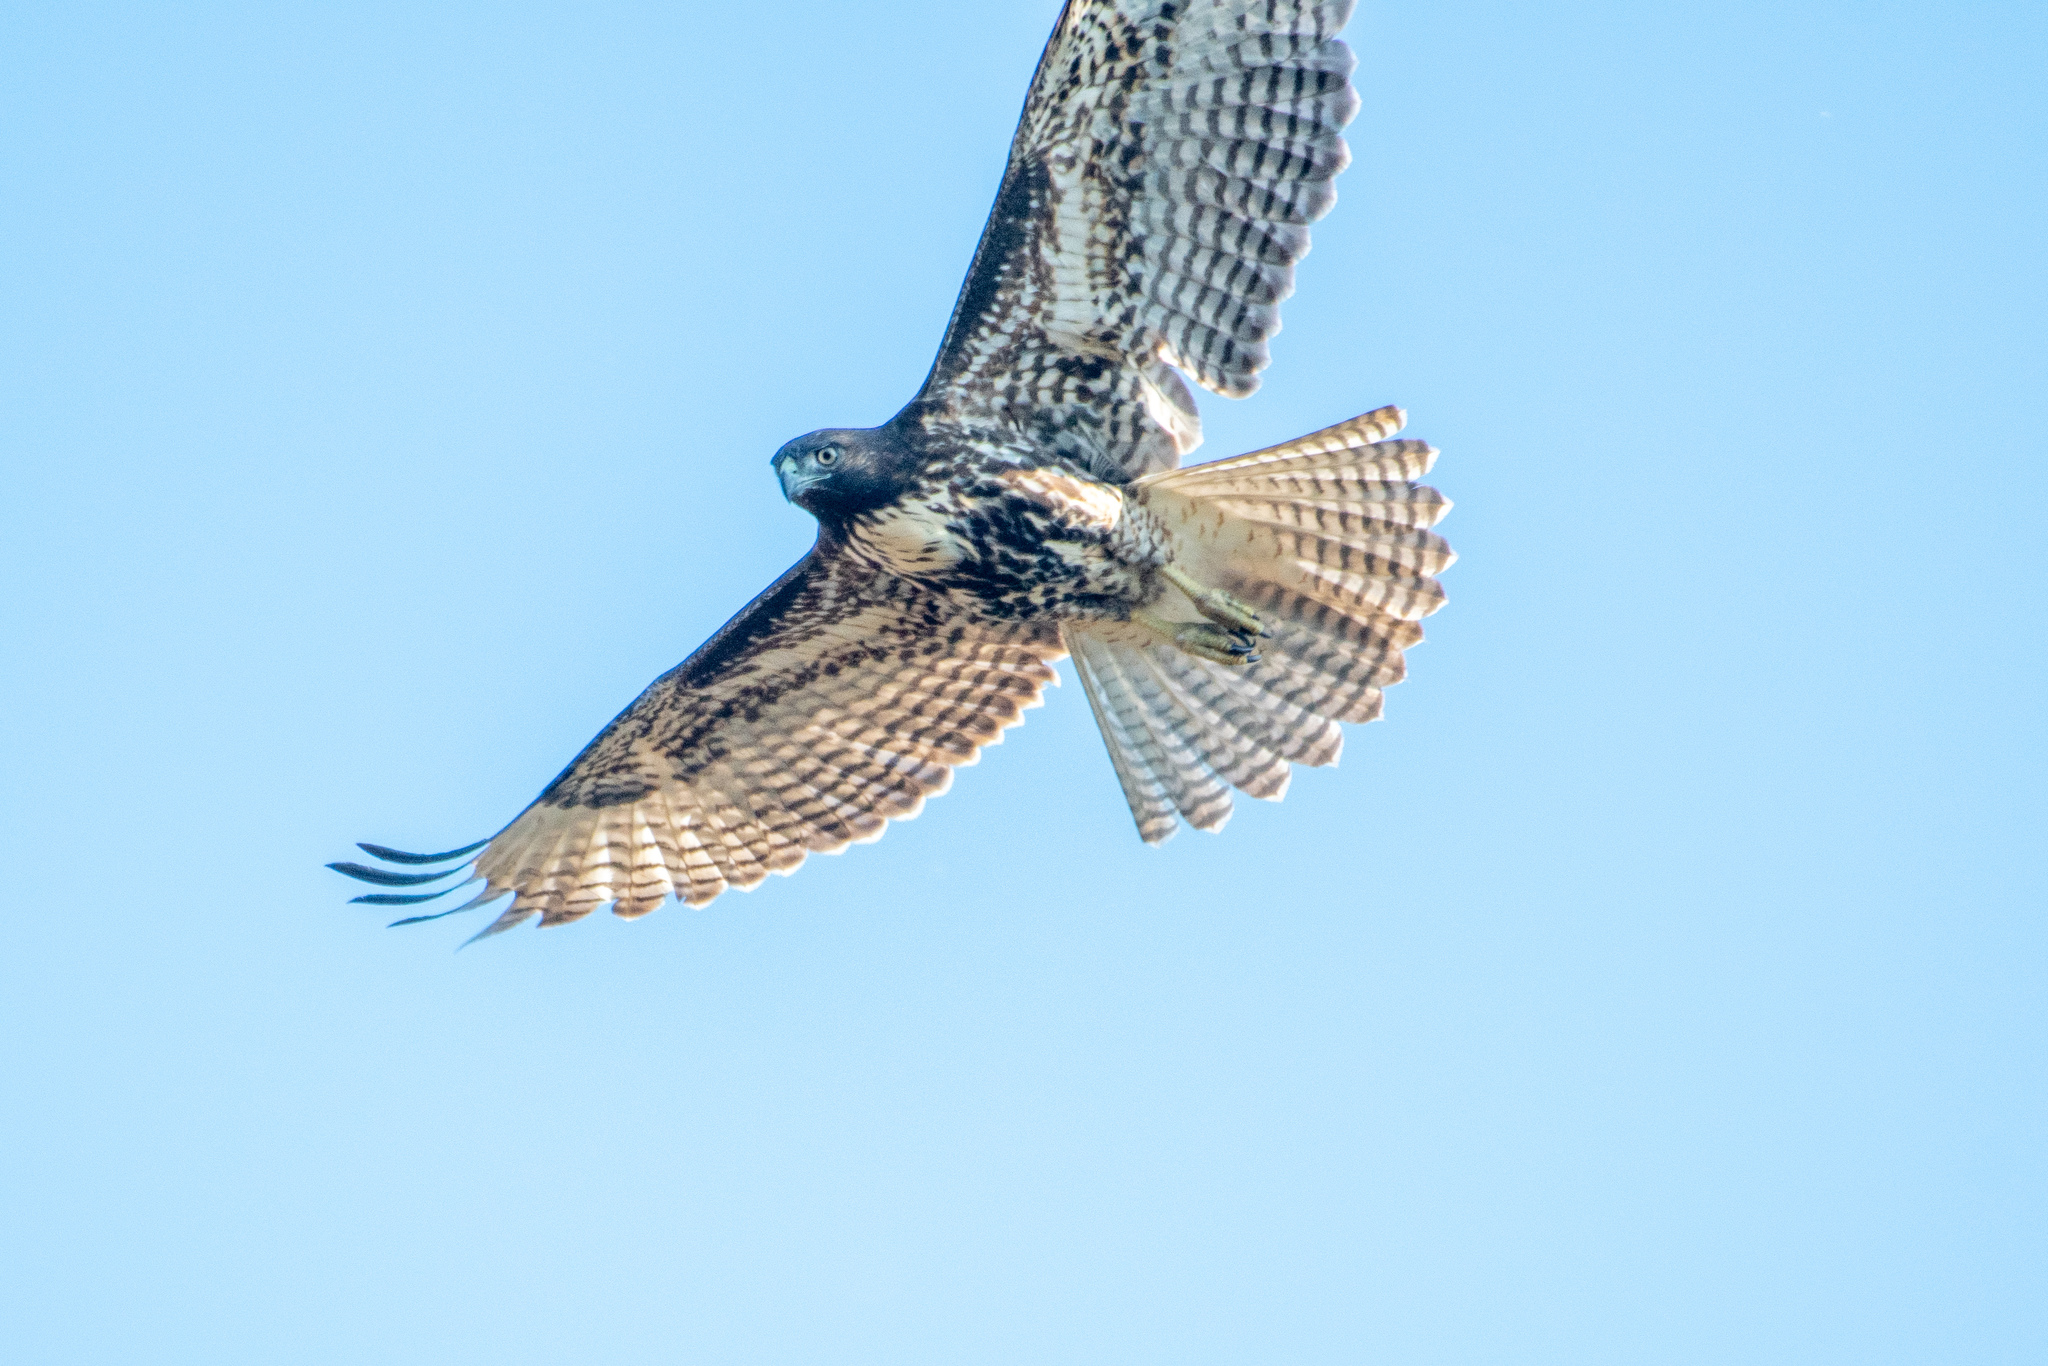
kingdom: Animalia
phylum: Chordata
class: Aves
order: Accipitriformes
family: Accipitridae
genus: Buteo
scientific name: Buteo jamaicensis
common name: Red-tailed hawk
